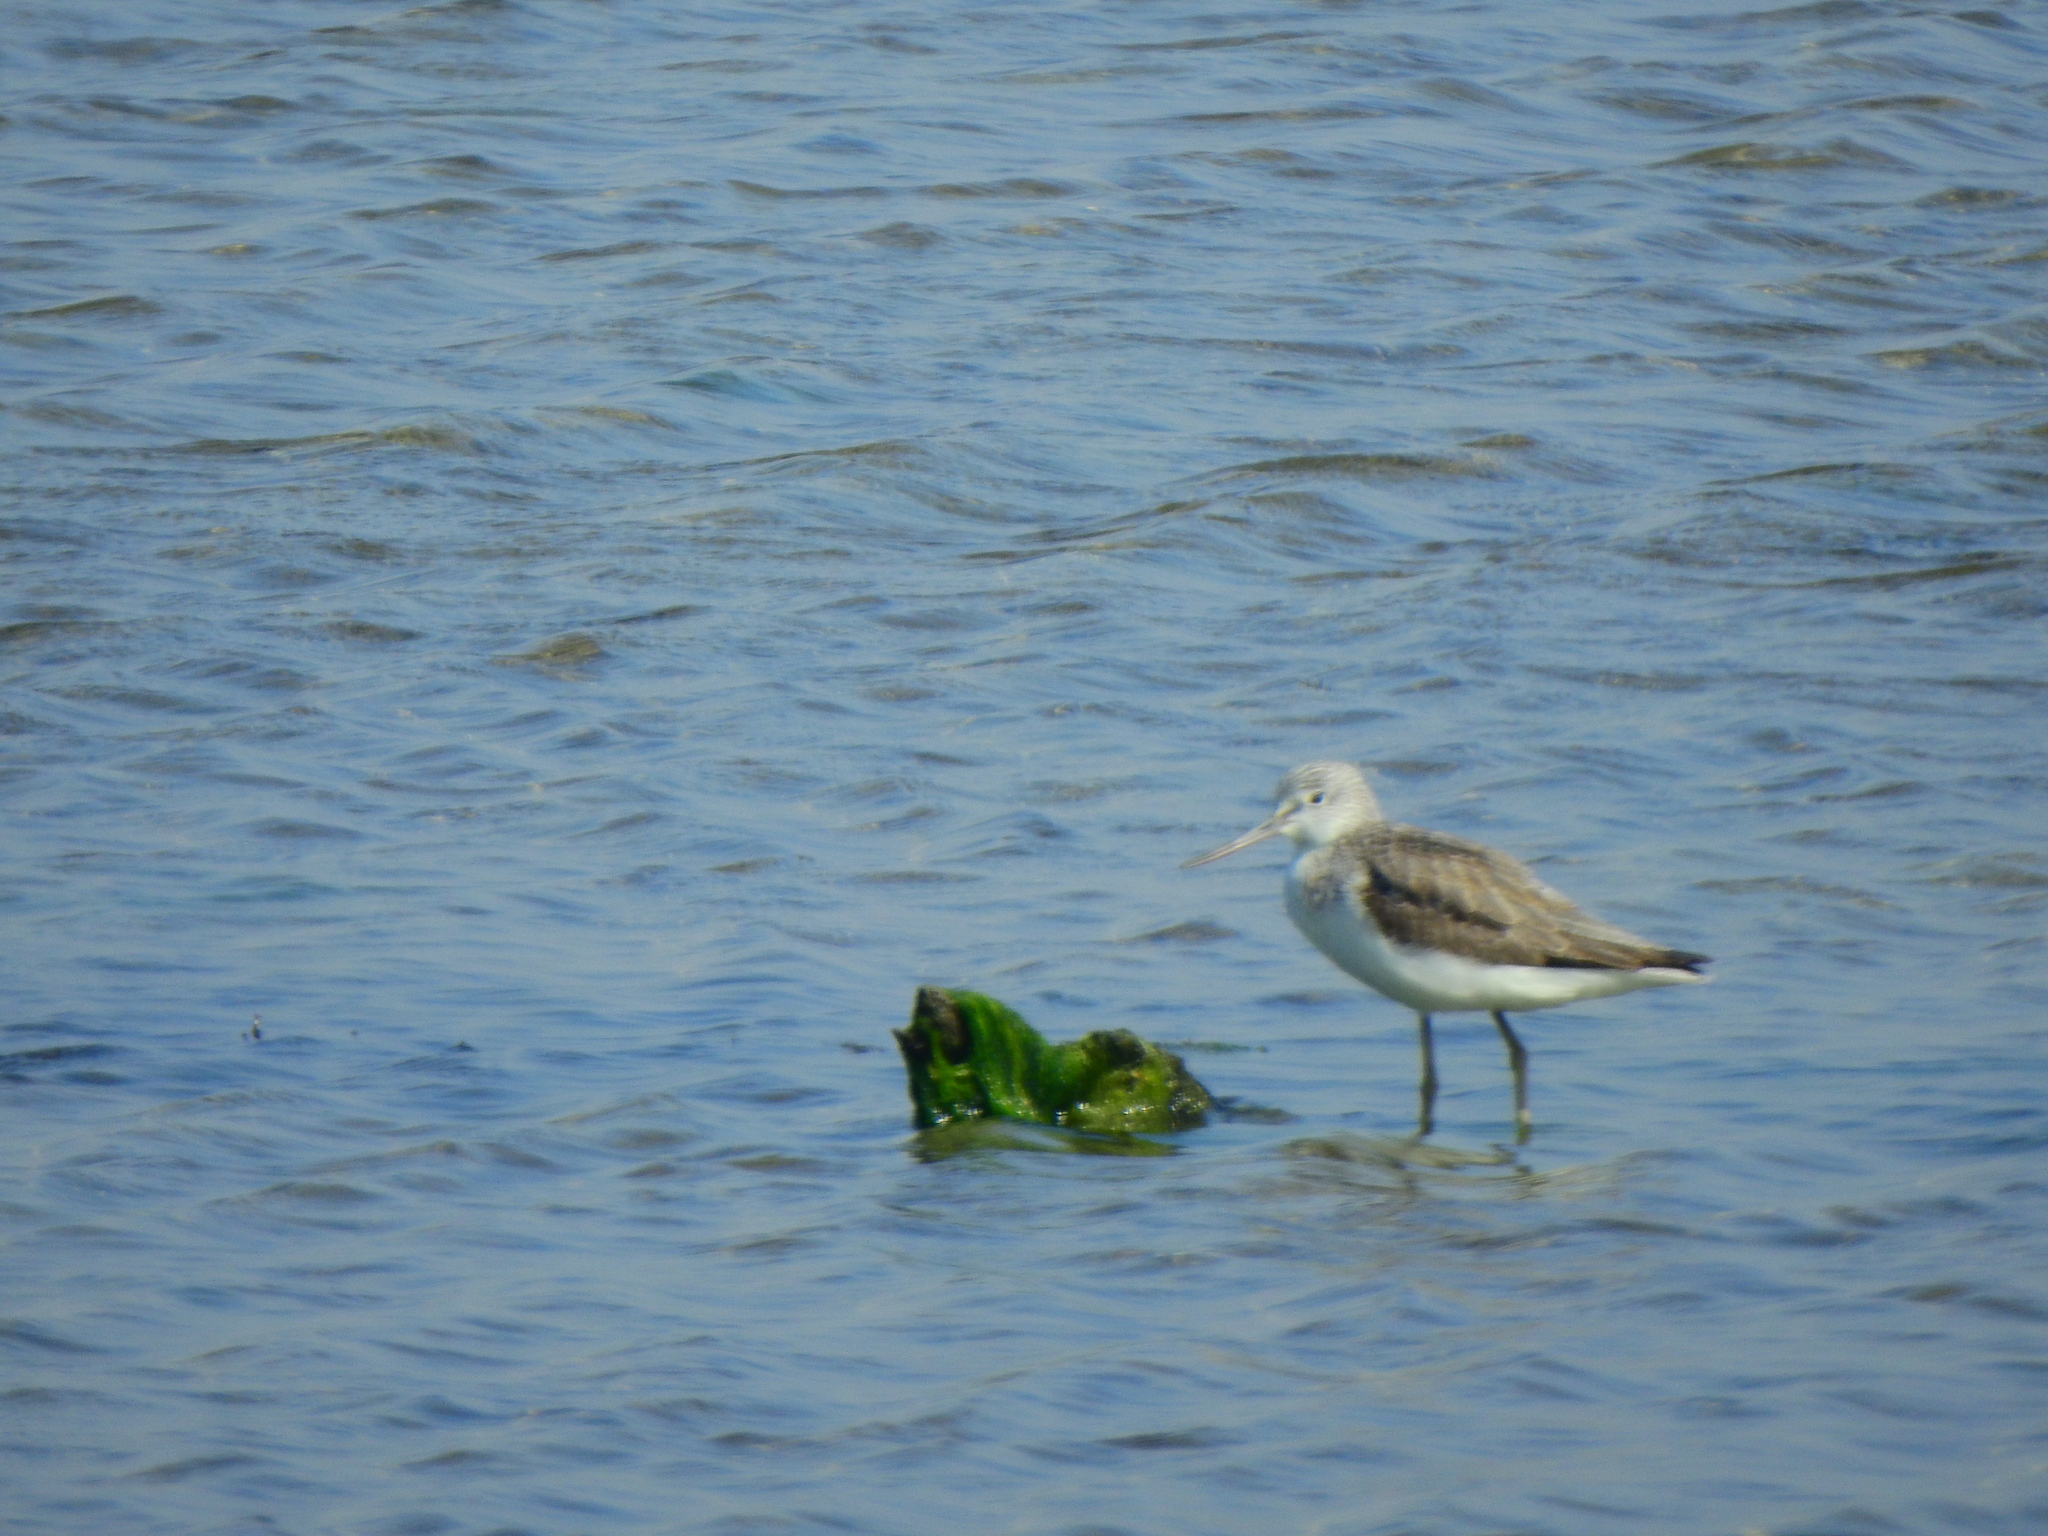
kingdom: Animalia
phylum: Chordata
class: Aves
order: Charadriiformes
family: Scolopacidae
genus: Tringa
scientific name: Tringa nebularia
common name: Common greenshank
